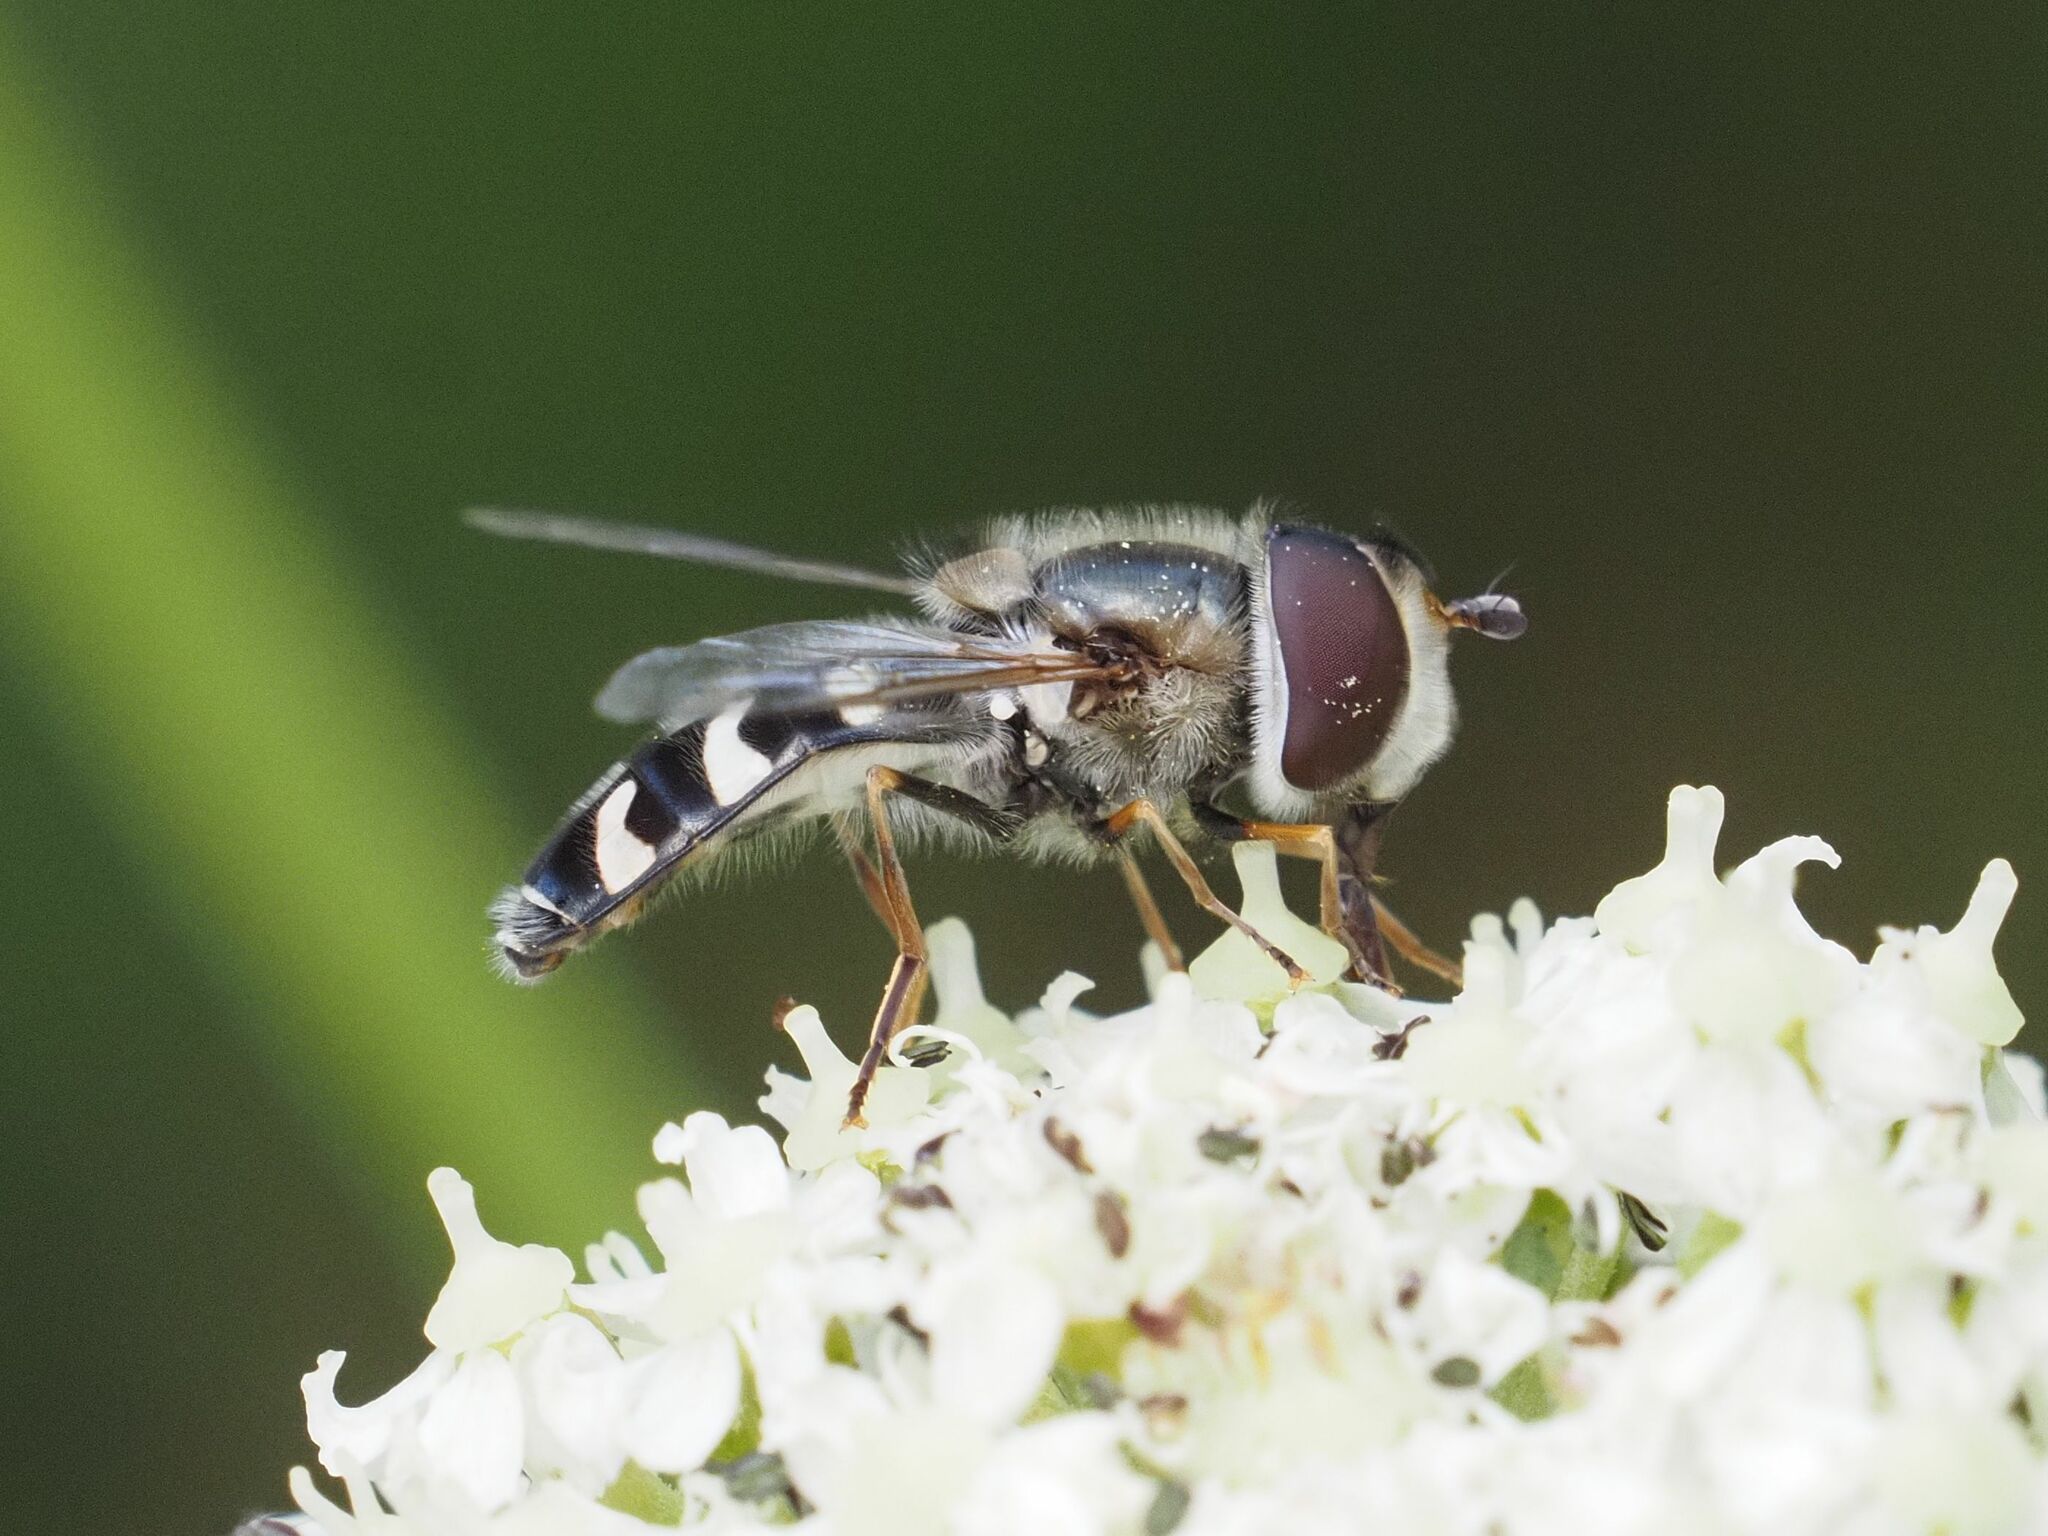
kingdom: Animalia
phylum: Arthropoda
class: Insecta
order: Diptera
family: Syrphidae
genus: Scaeva
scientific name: Scaeva pyrastri
